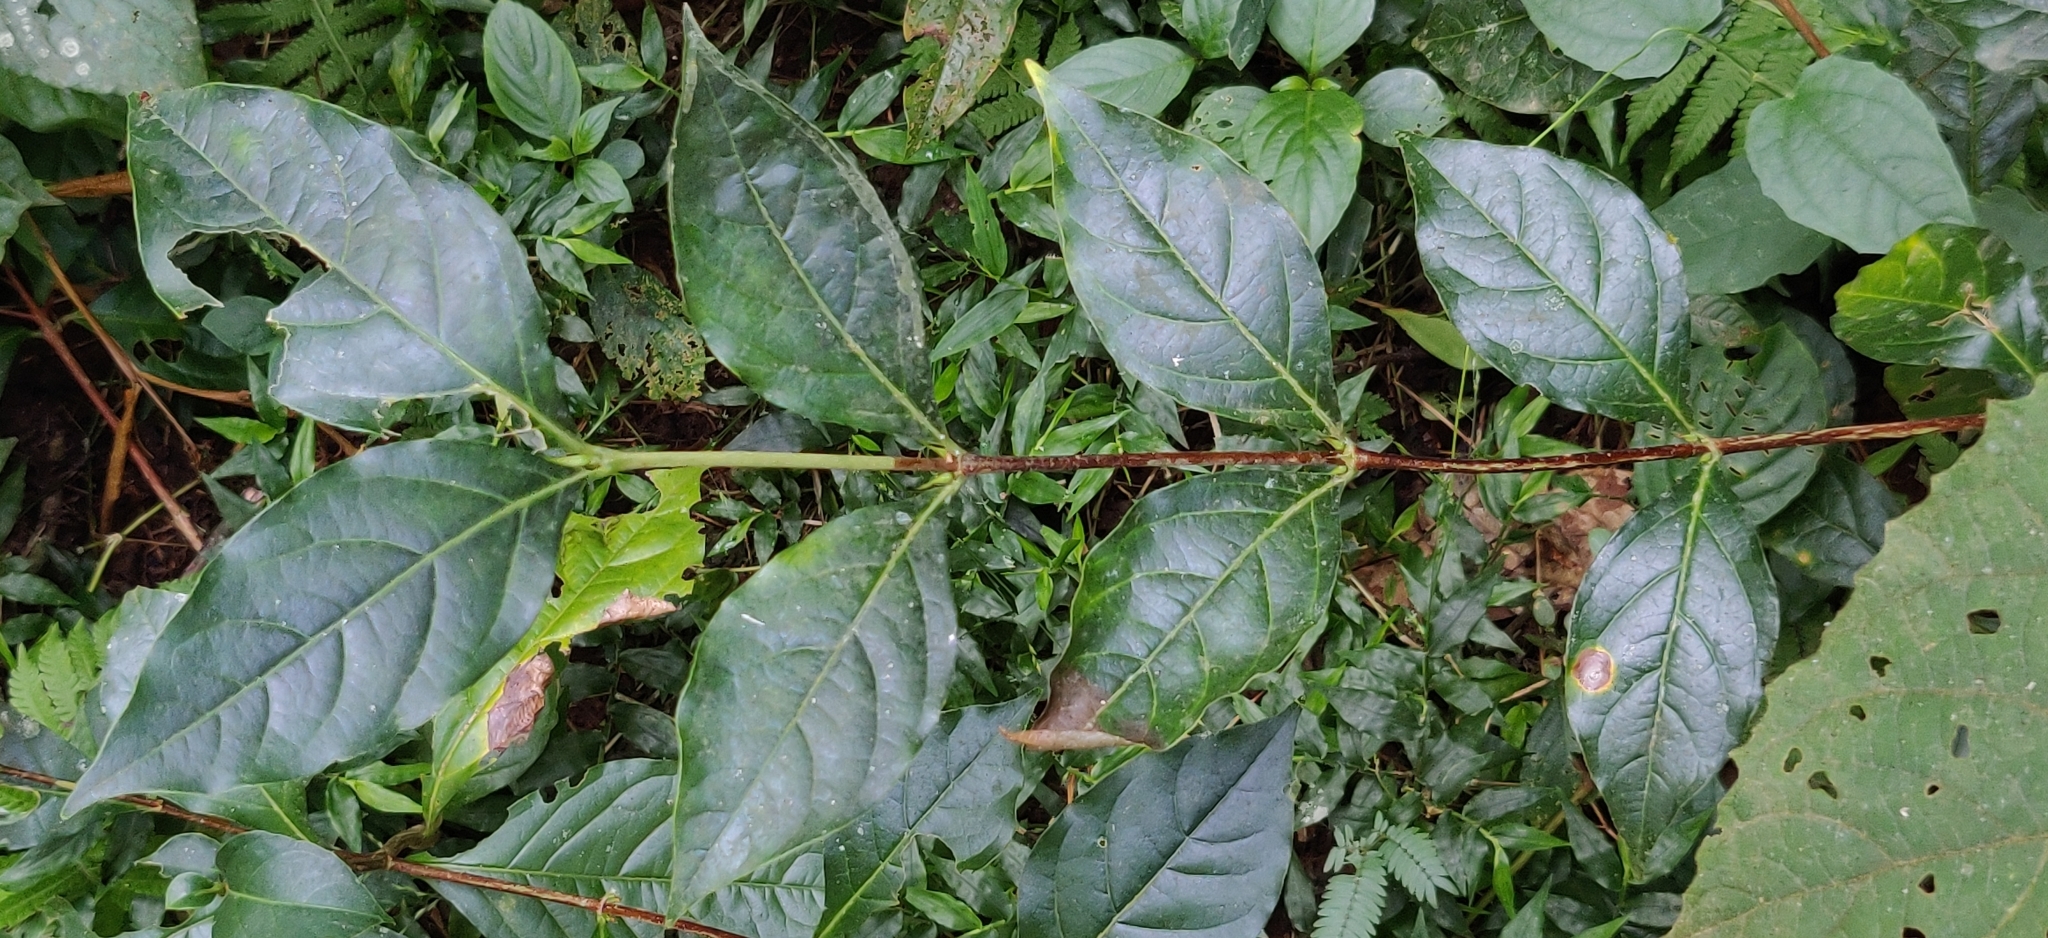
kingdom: Plantae
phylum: Tracheophyta
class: Magnoliopsida
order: Gentianales
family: Rubiaceae
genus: Coffea
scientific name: Coffea benghalensis
